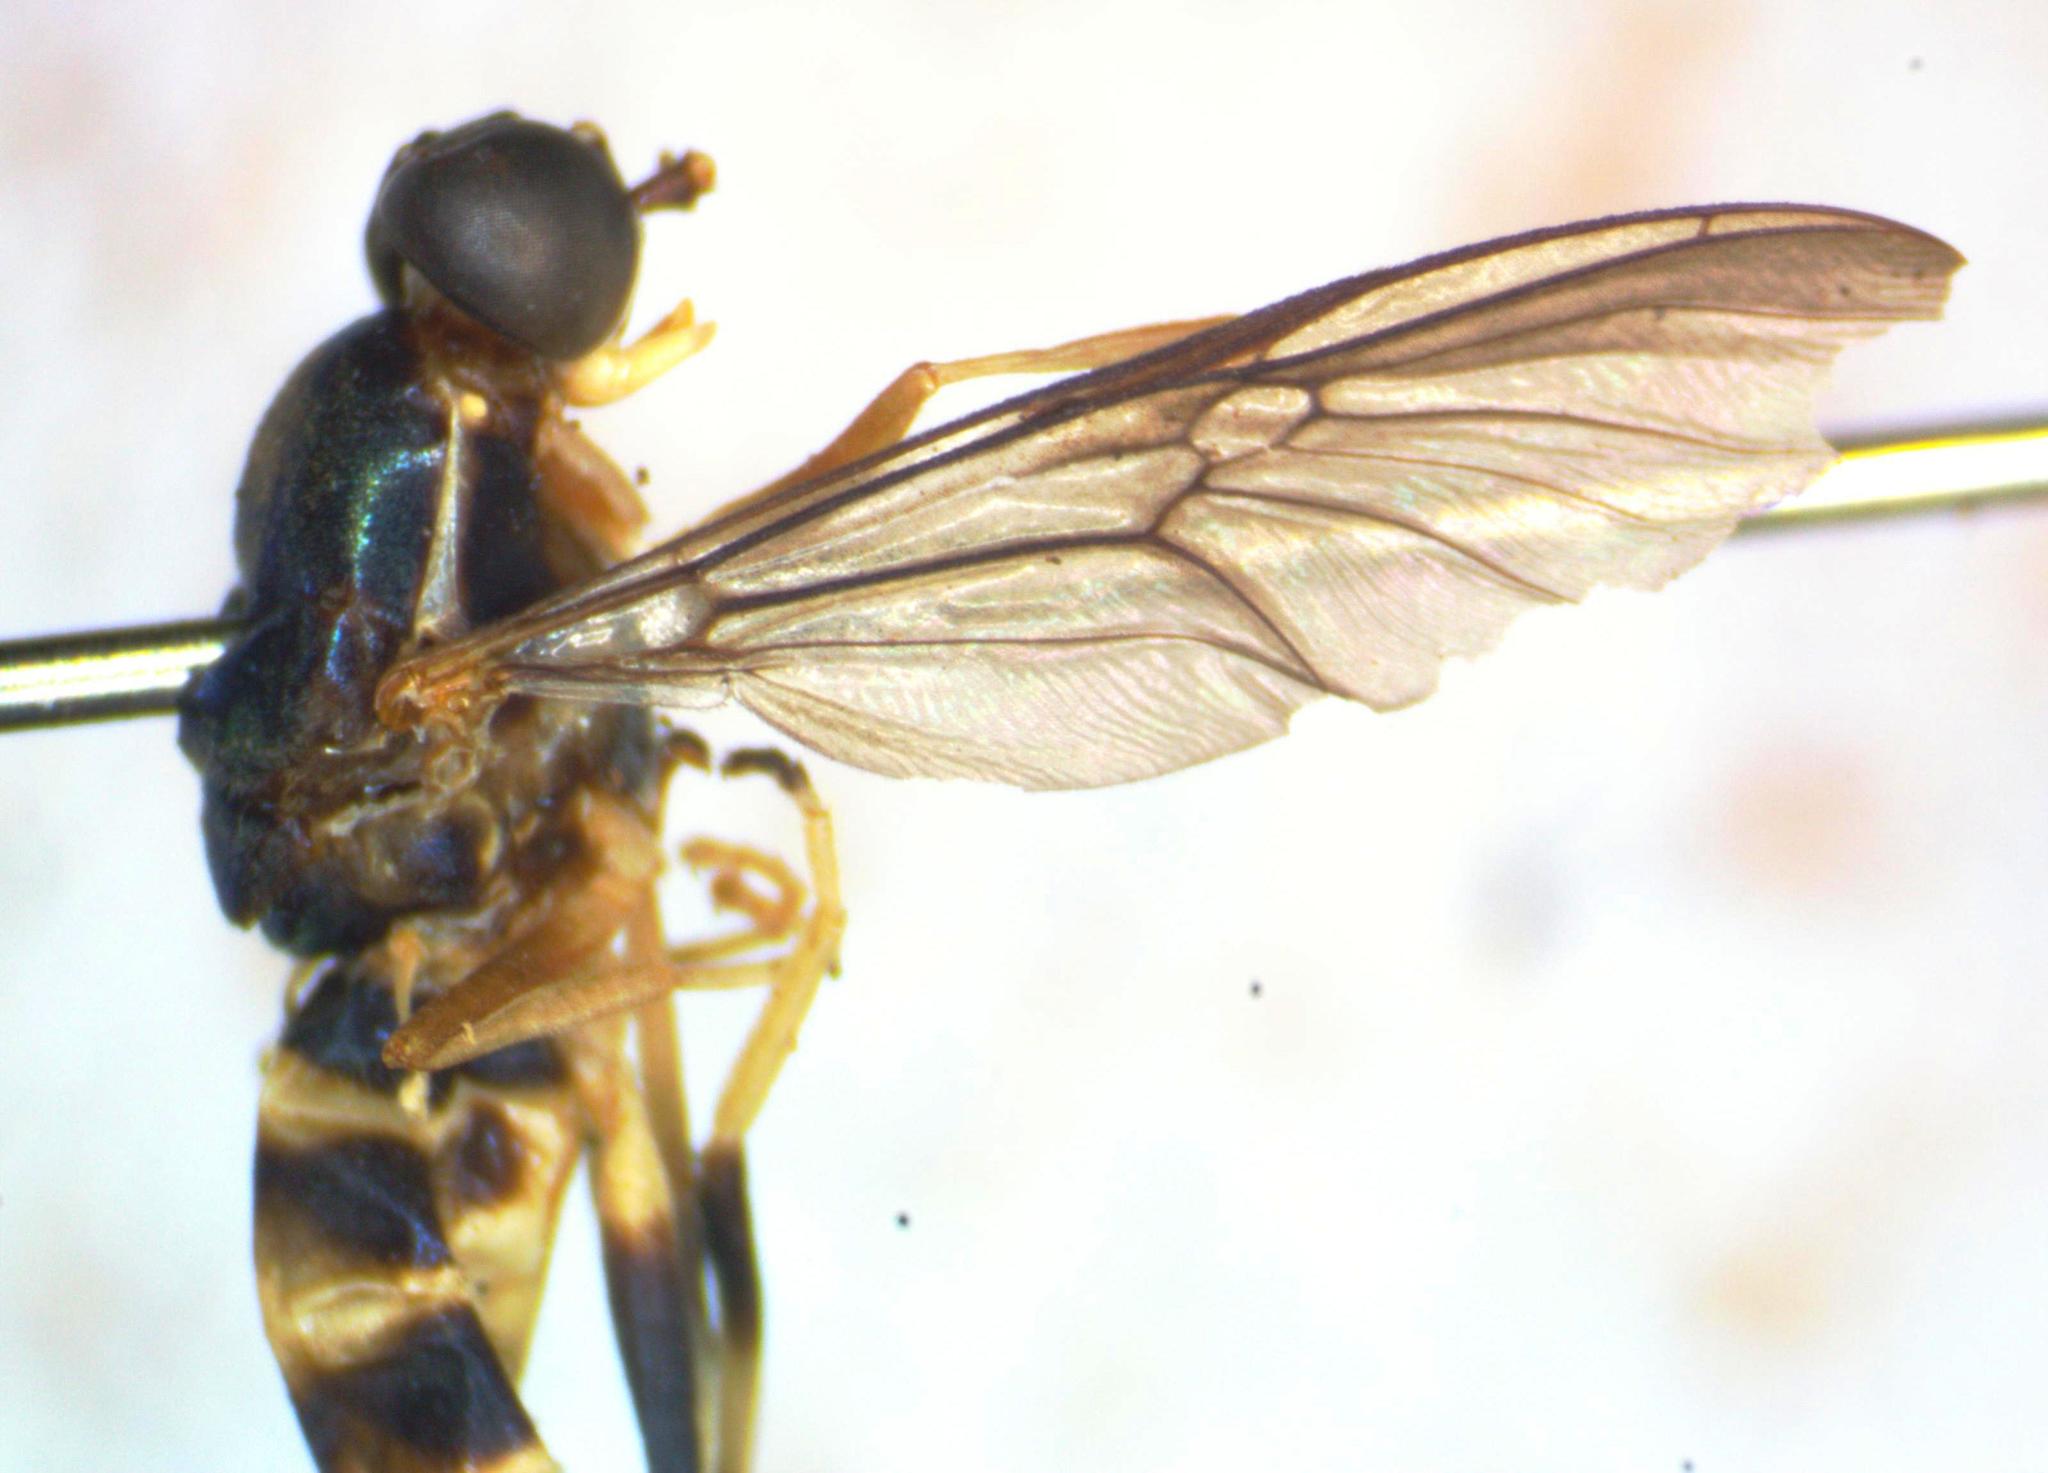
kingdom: Animalia
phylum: Arthropoda
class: Insecta
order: Diptera
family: Stratiomyidae
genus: Merosargus
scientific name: Merosargus cingulatus
